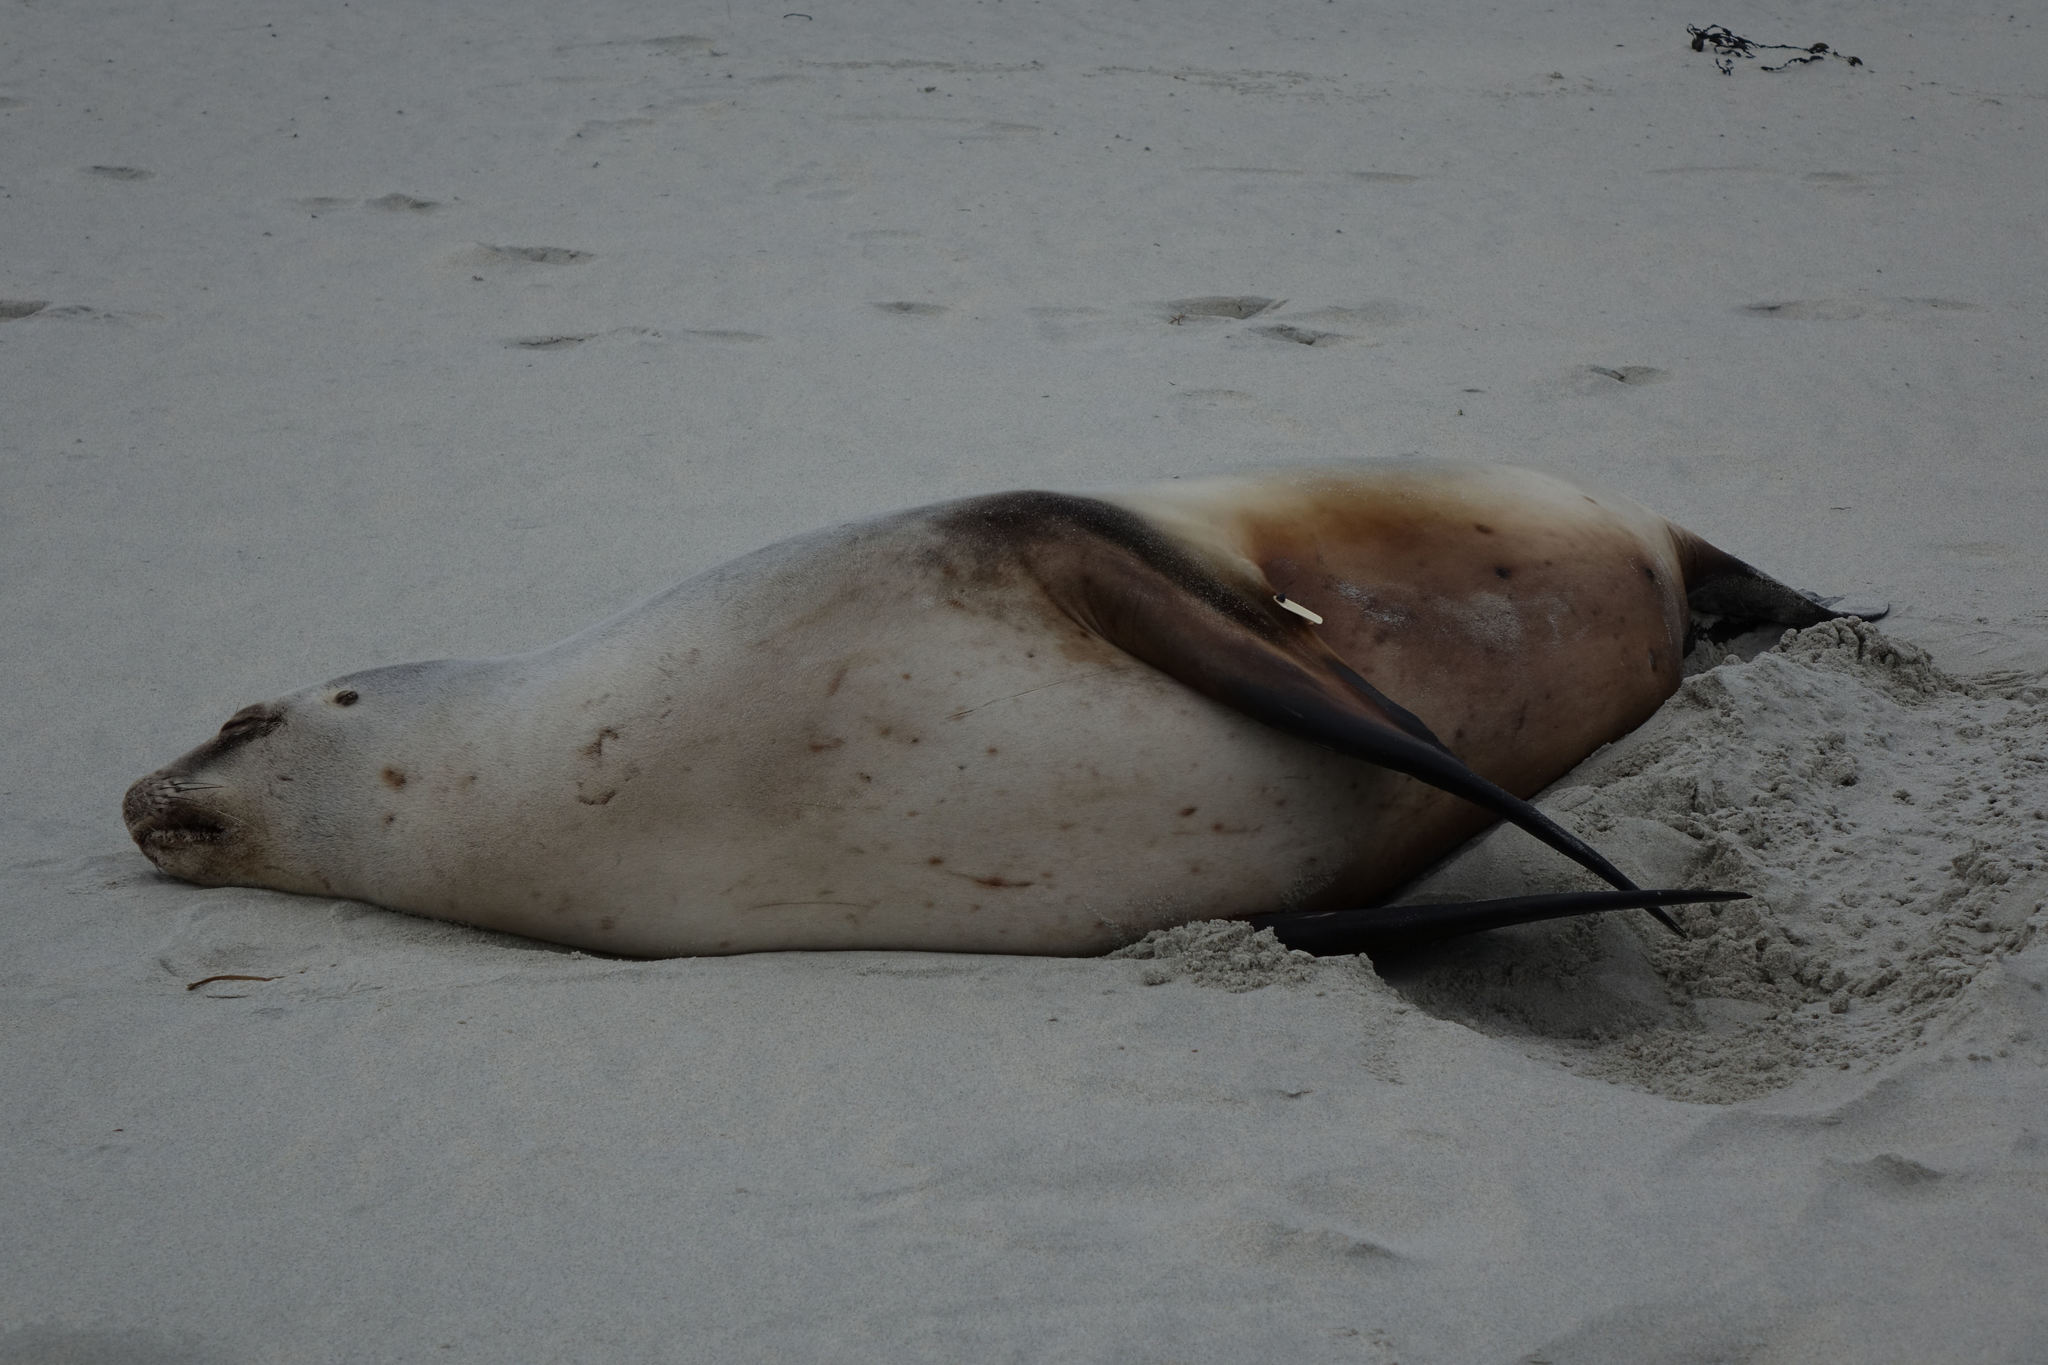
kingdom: Animalia
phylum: Chordata
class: Mammalia
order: Carnivora
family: Otariidae
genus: Phocarctos
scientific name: Phocarctos hookeri
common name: New zealand sea lion
